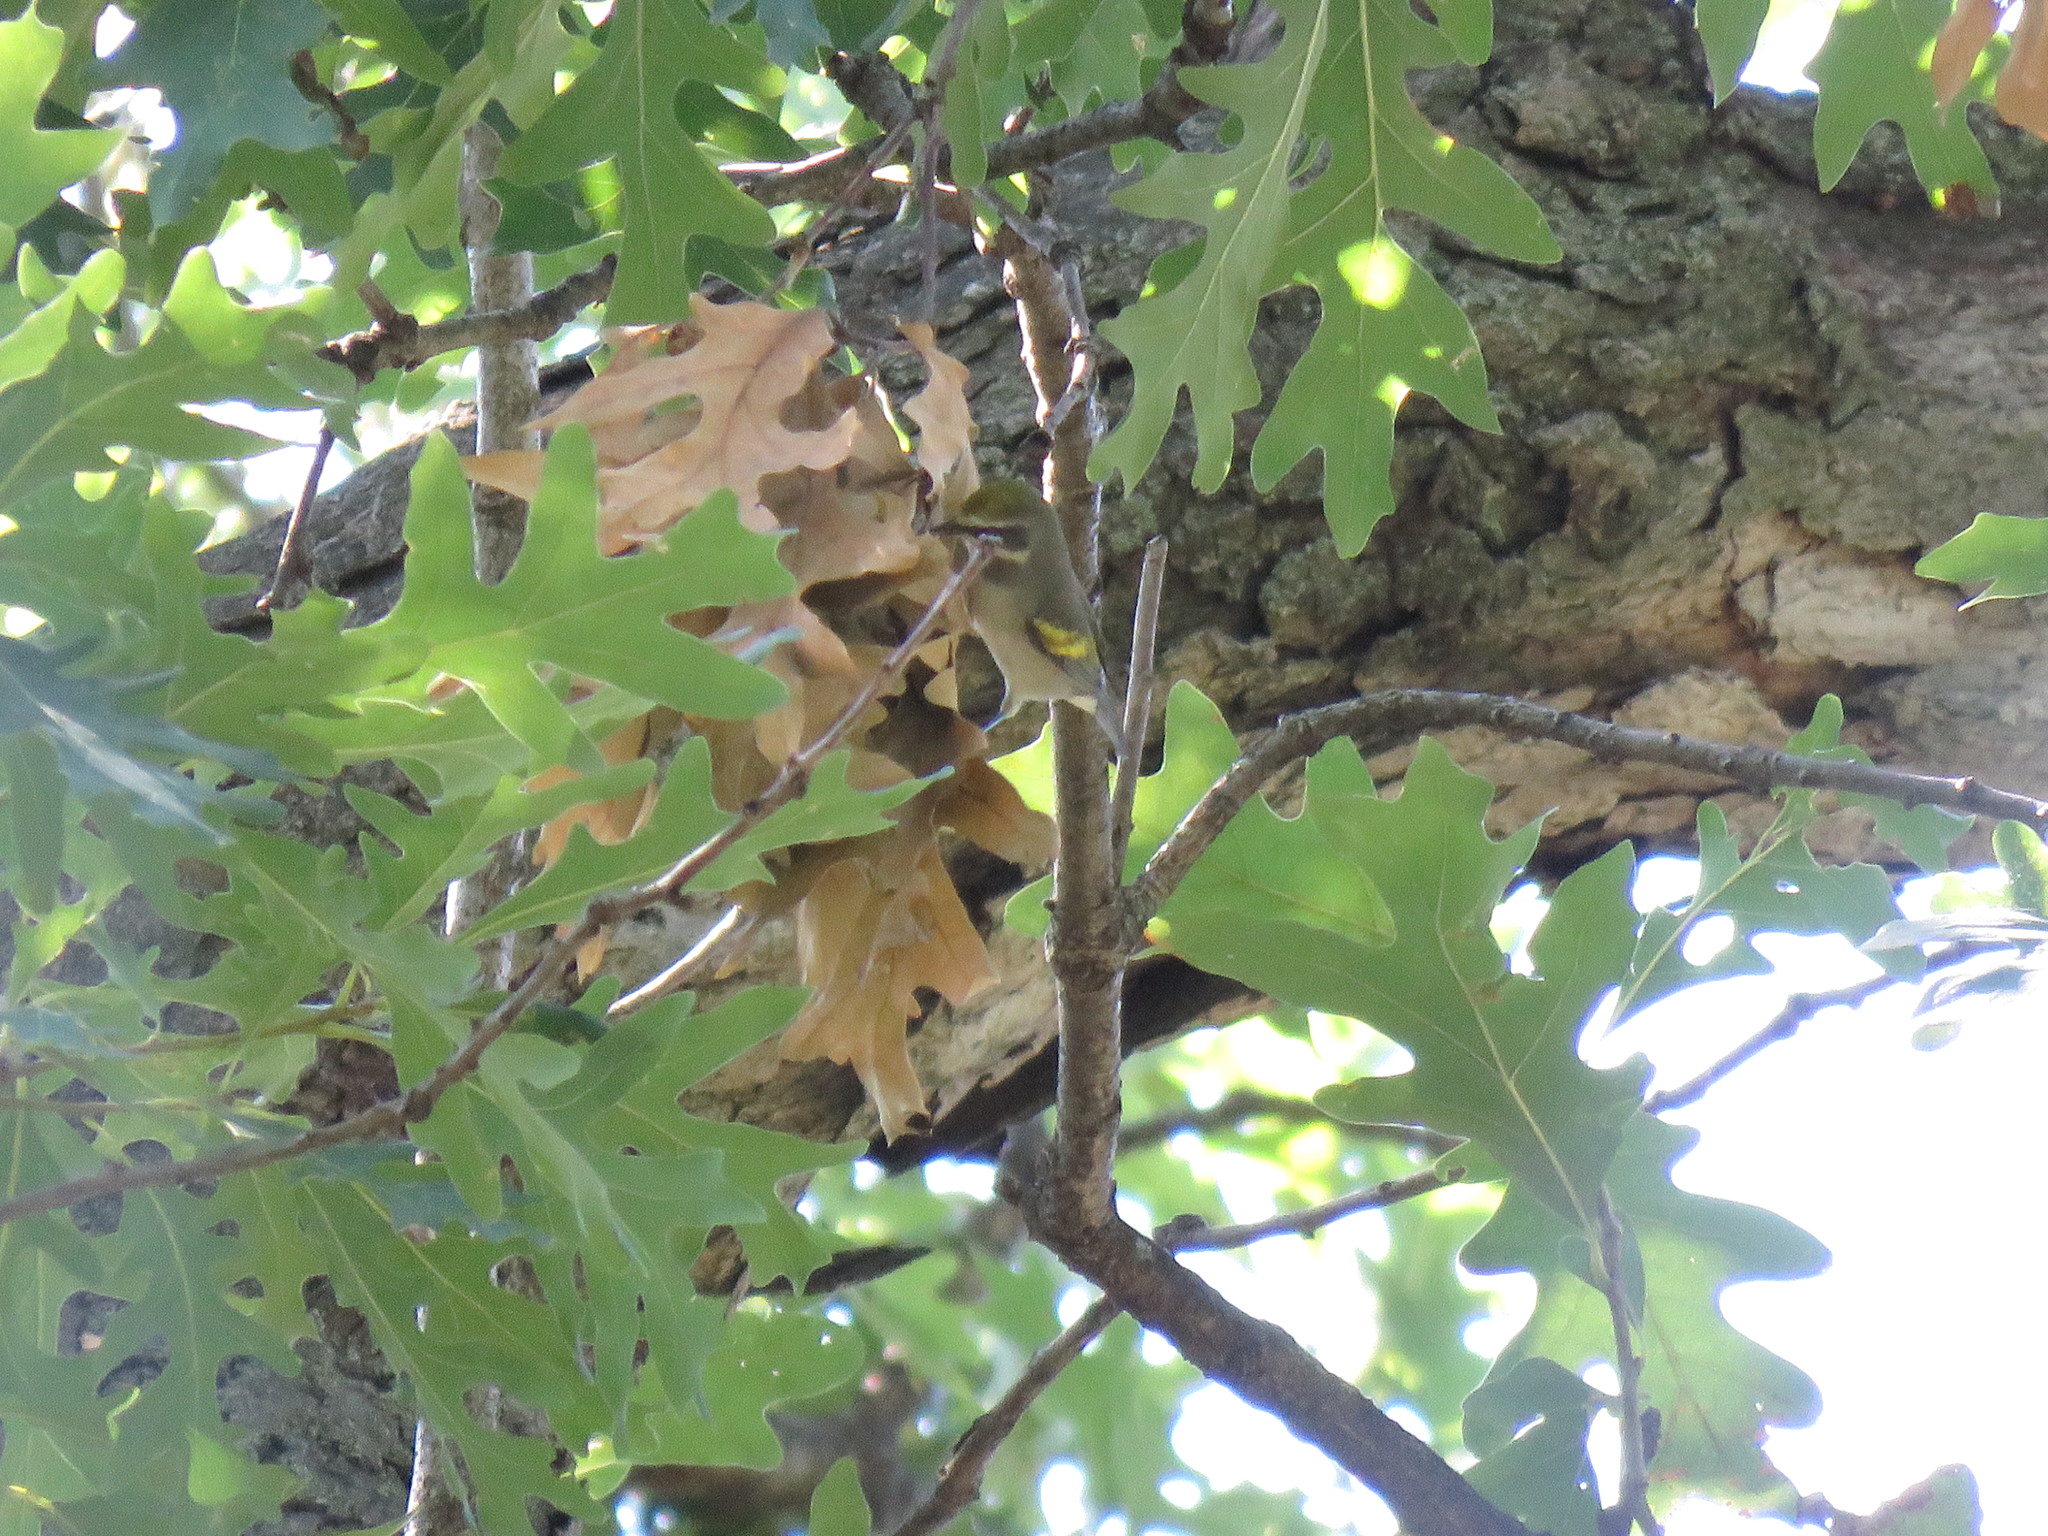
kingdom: Animalia
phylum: Chordata
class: Aves
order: Passeriformes
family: Parulidae
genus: Vermivora
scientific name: Vermivora chrysoptera
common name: Golden-winged warbler
